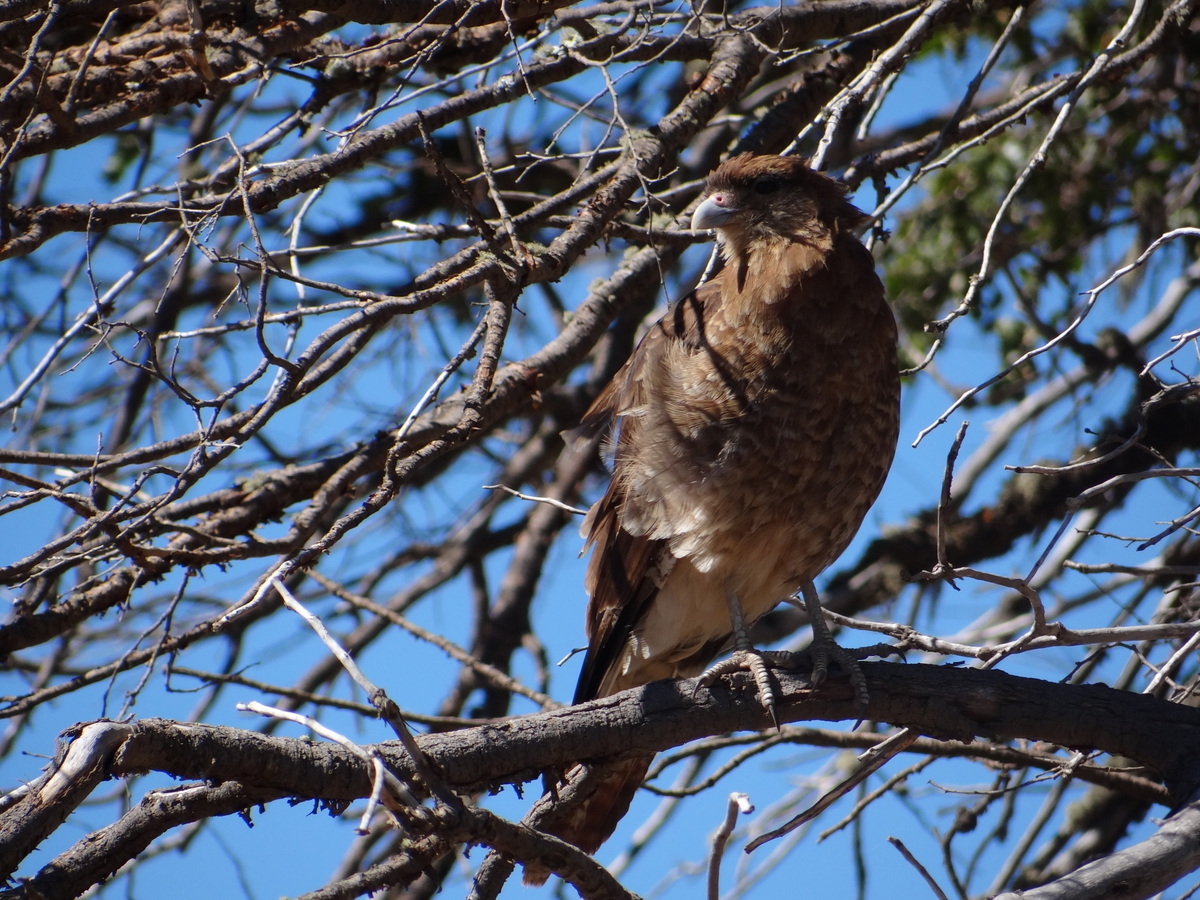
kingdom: Animalia
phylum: Chordata
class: Aves
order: Falconiformes
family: Falconidae
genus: Daptrius
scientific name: Daptrius
